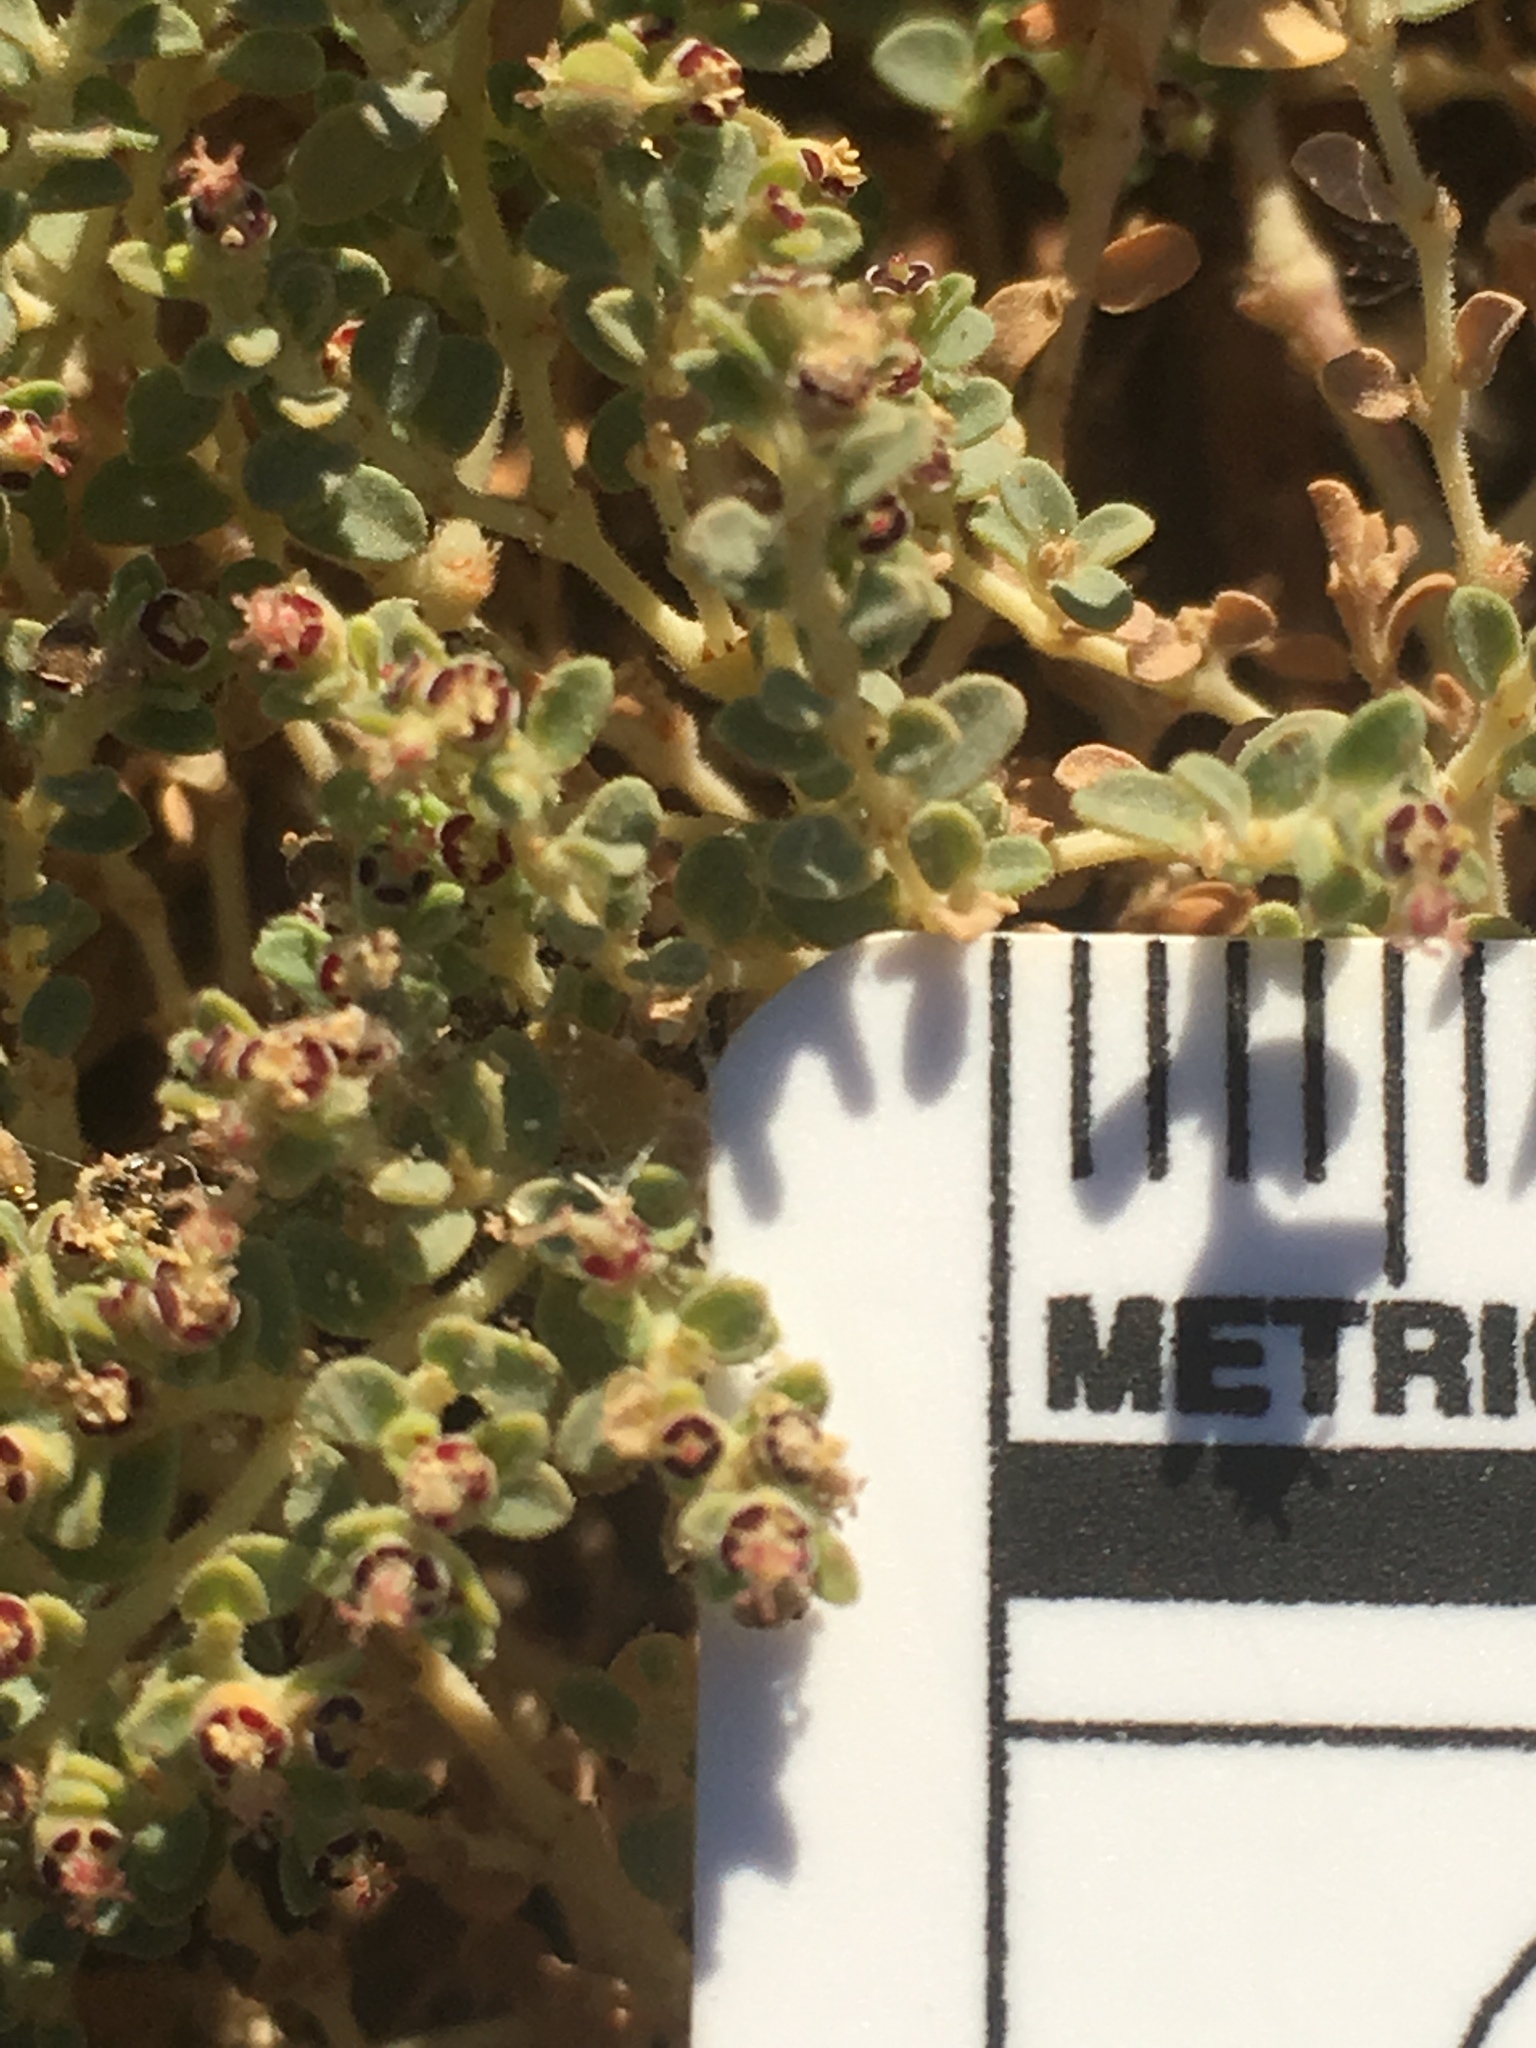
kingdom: Plantae
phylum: Tracheophyta
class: Magnoliopsida
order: Malpighiales
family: Euphorbiaceae
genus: Euphorbia
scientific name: Euphorbia polycarpa
